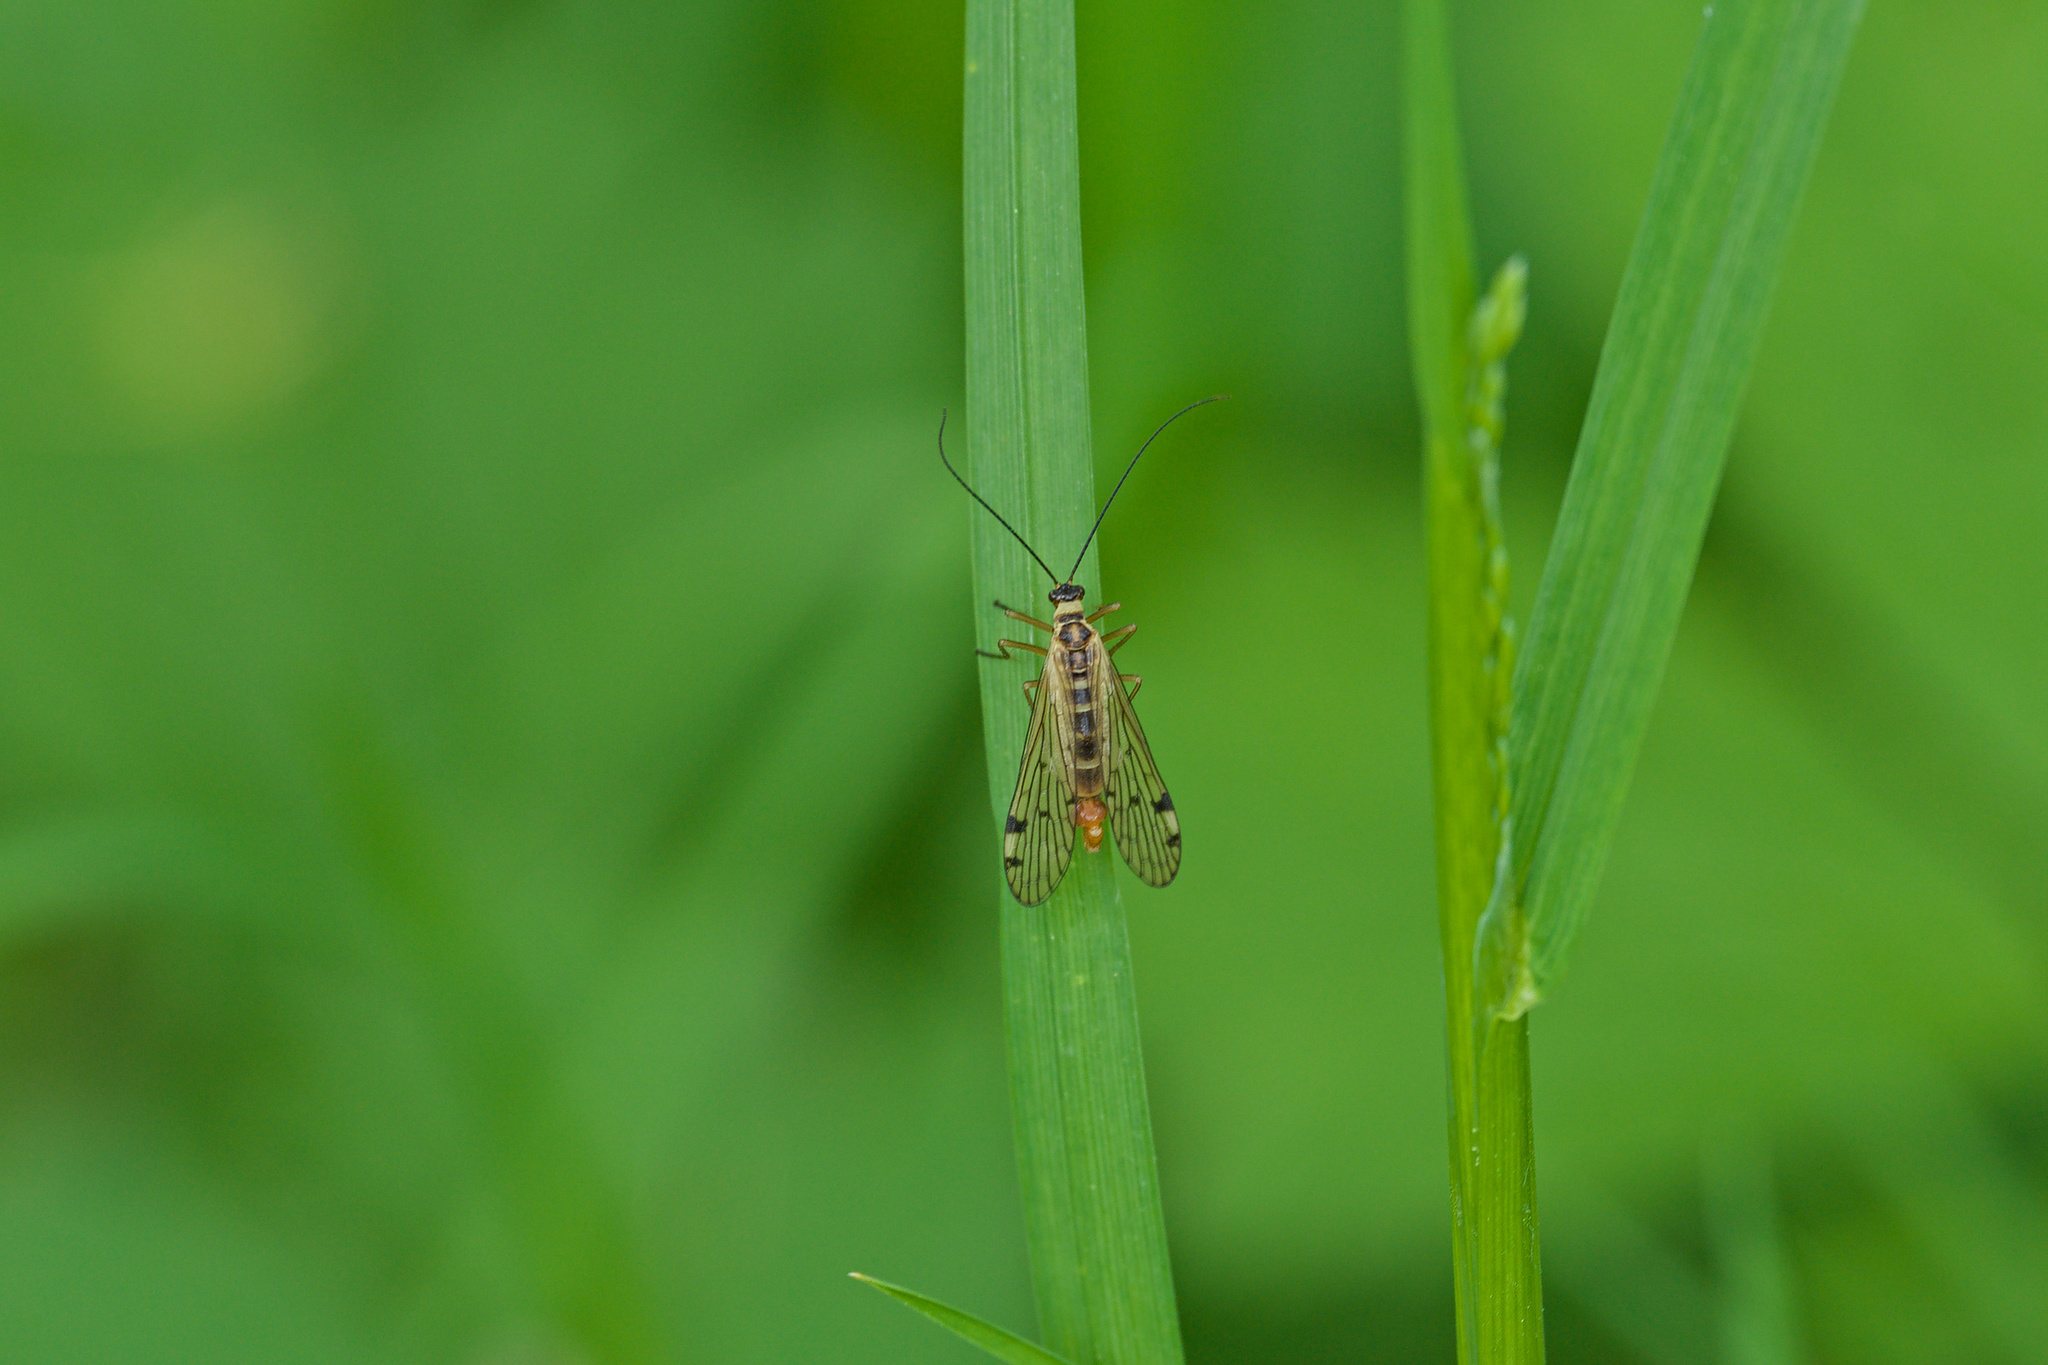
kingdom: Animalia
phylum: Arthropoda
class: Insecta
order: Mecoptera
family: Panorpidae
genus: Panorpa
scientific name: Panorpa alpina
